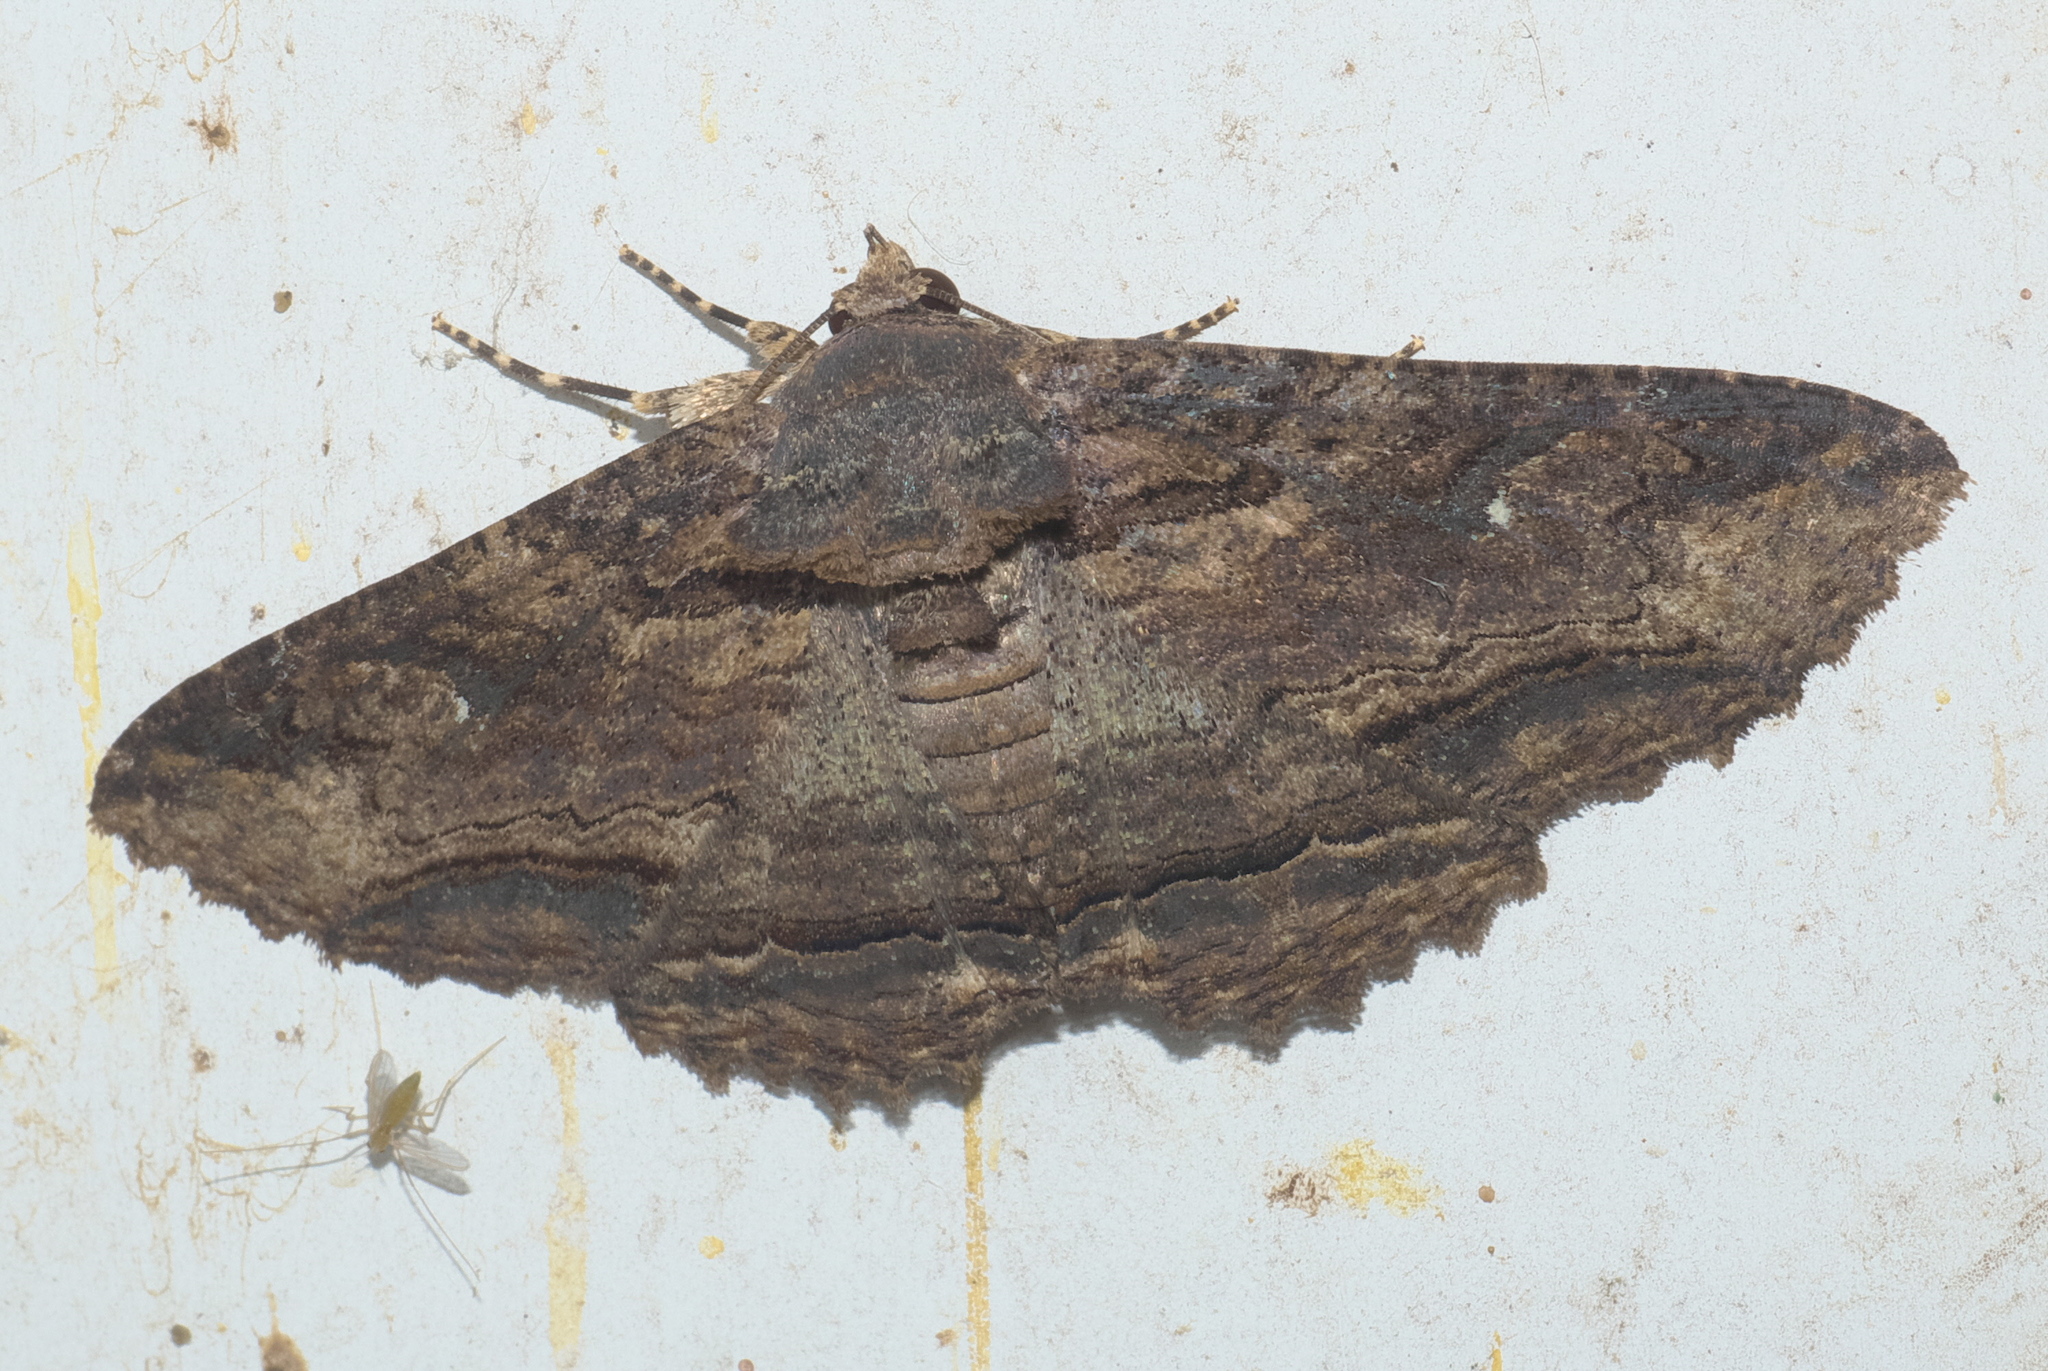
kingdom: Animalia
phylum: Arthropoda
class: Insecta
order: Lepidoptera
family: Erebidae
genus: Zale
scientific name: Zale lunata
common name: Lunate zale moth
